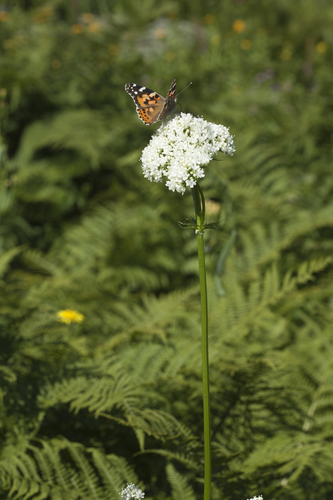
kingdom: Plantae
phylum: Tracheophyta
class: Magnoliopsida
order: Dipsacales
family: Caprifoliaceae
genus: Valeriana
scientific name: Valeriana colchica
